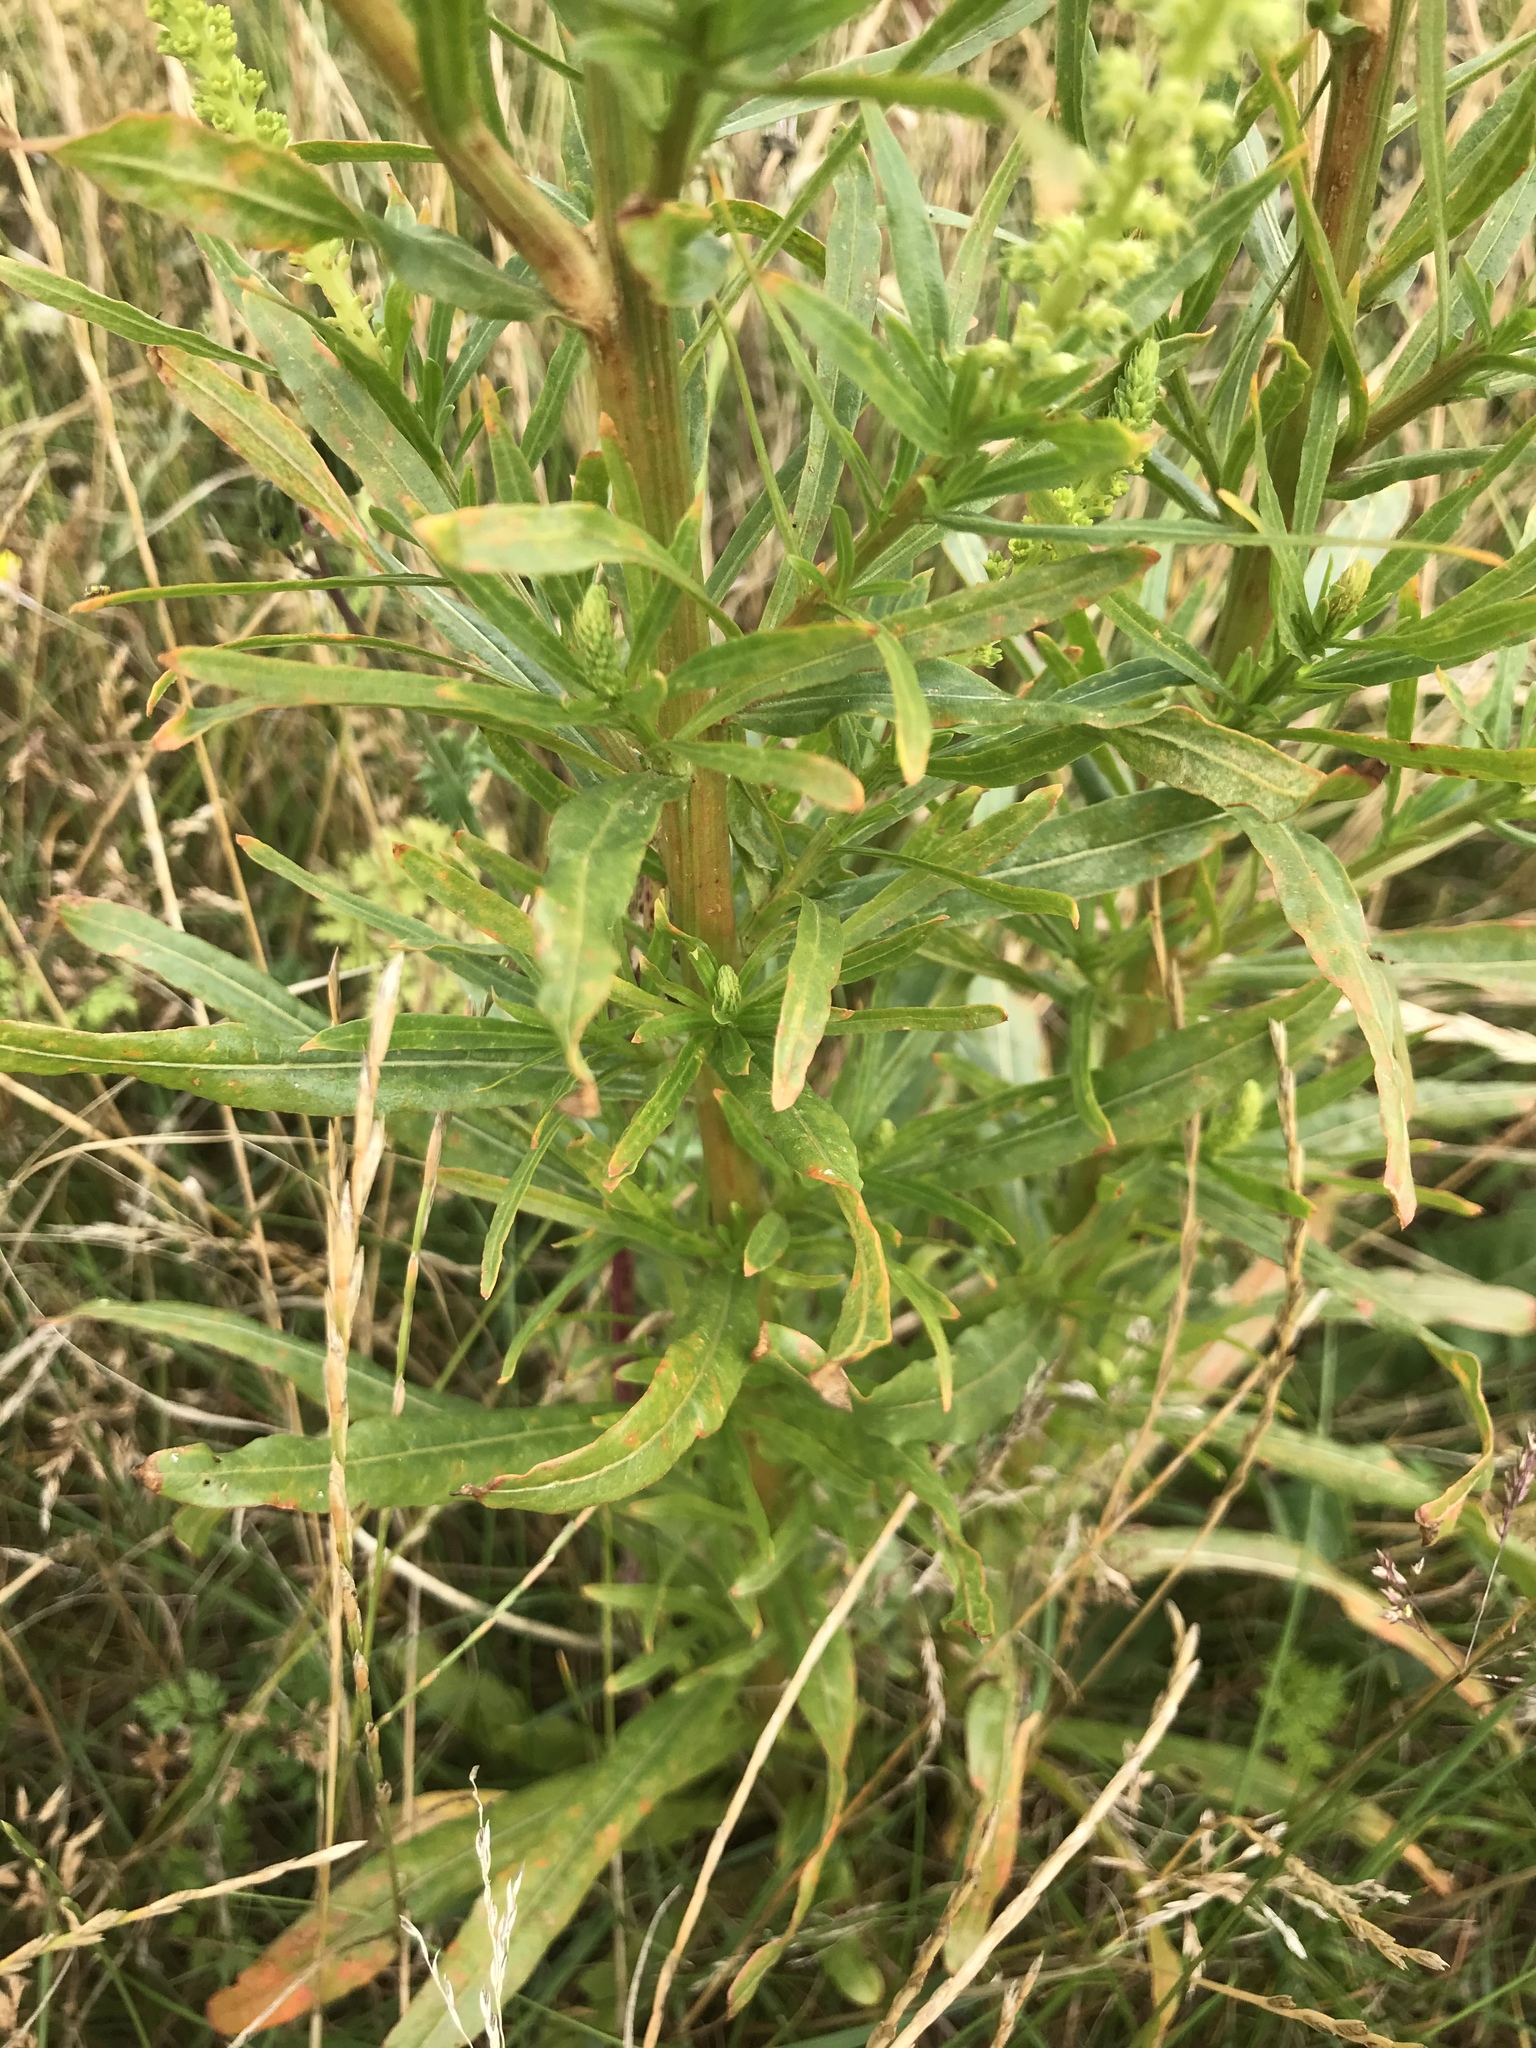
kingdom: Plantae
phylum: Tracheophyta
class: Magnoliopsida
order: Brassicales
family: Resedaceae
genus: Reseda
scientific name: Reseda luteola
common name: Weld
